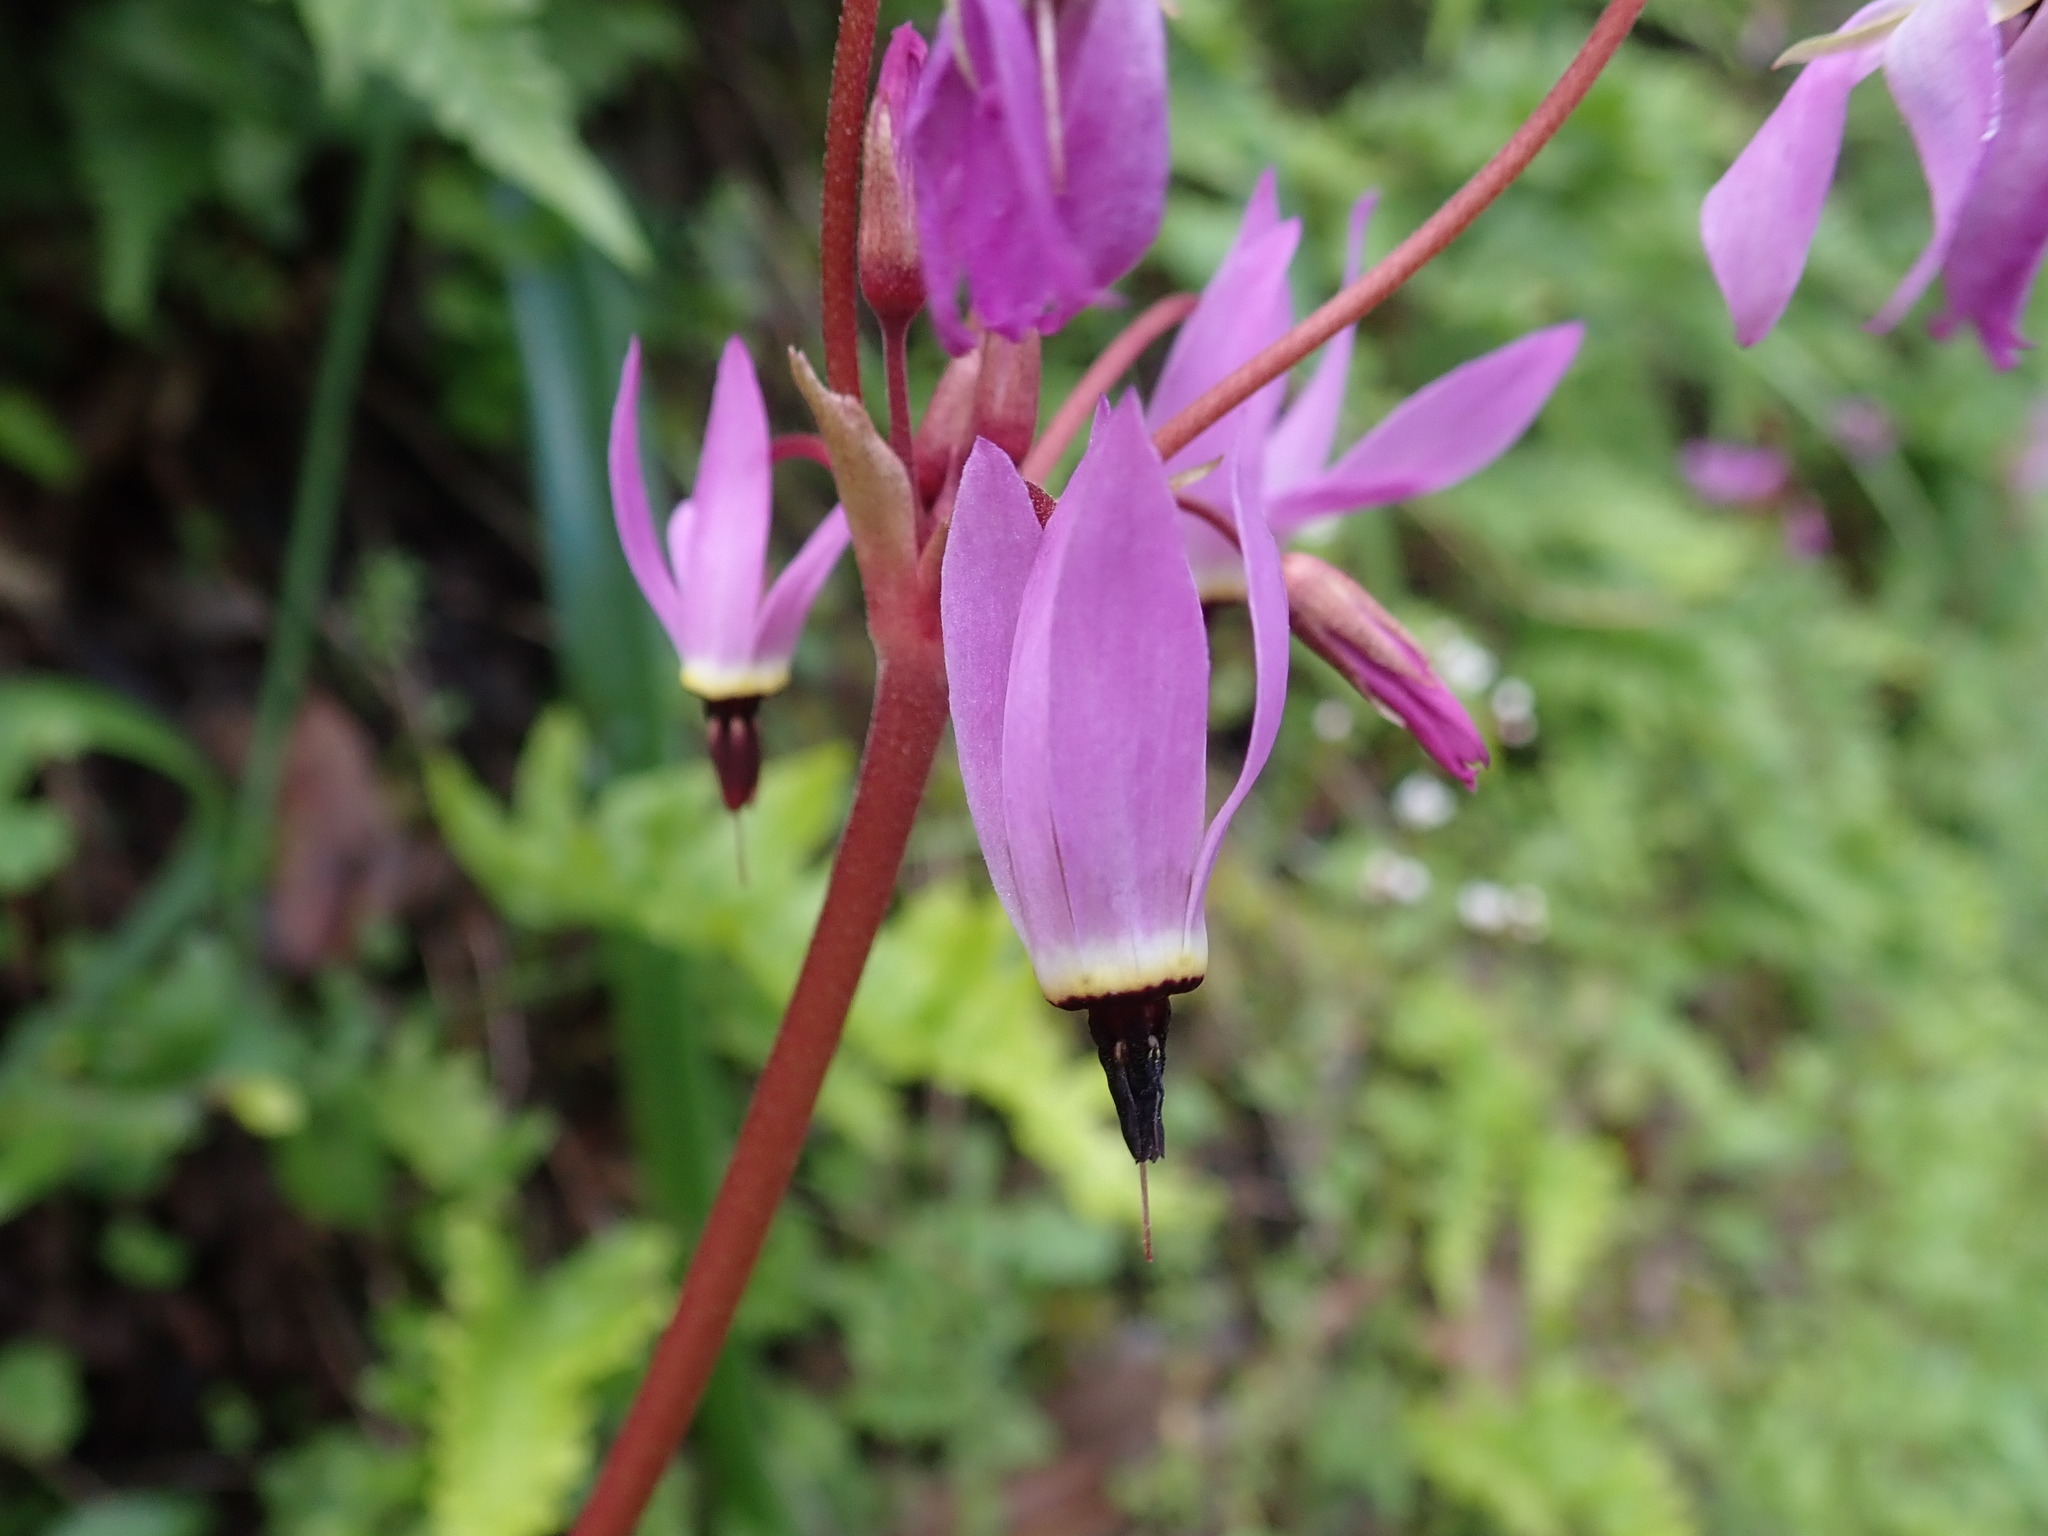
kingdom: Plantae
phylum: Tracheophyta
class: Magnoliopsida
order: Ericales
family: Primulaceae
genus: Dodecatheon
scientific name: Dodecatheon hendersonii
